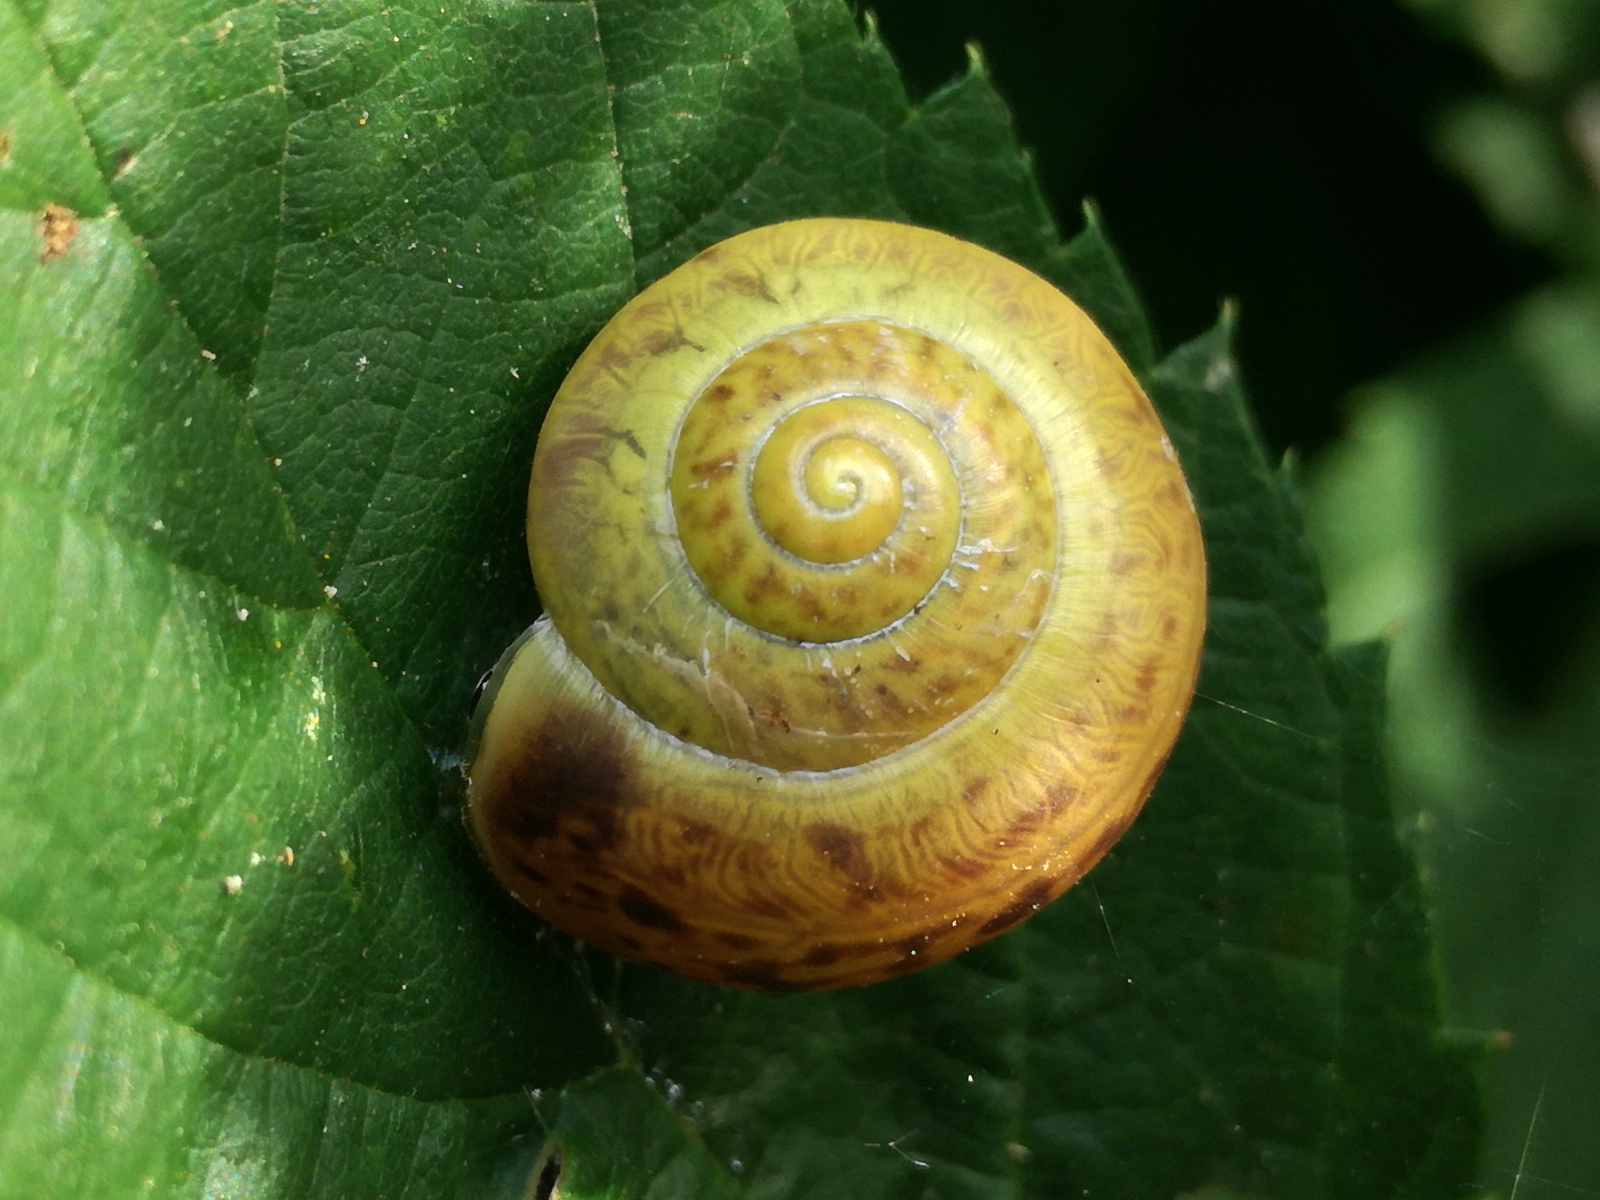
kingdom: Animalia
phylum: Mollusca
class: Gastropoda
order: Stylommatophora
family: Camaenidae
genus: Fruticicola
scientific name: Fruticicola fruticum
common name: Bush snail
